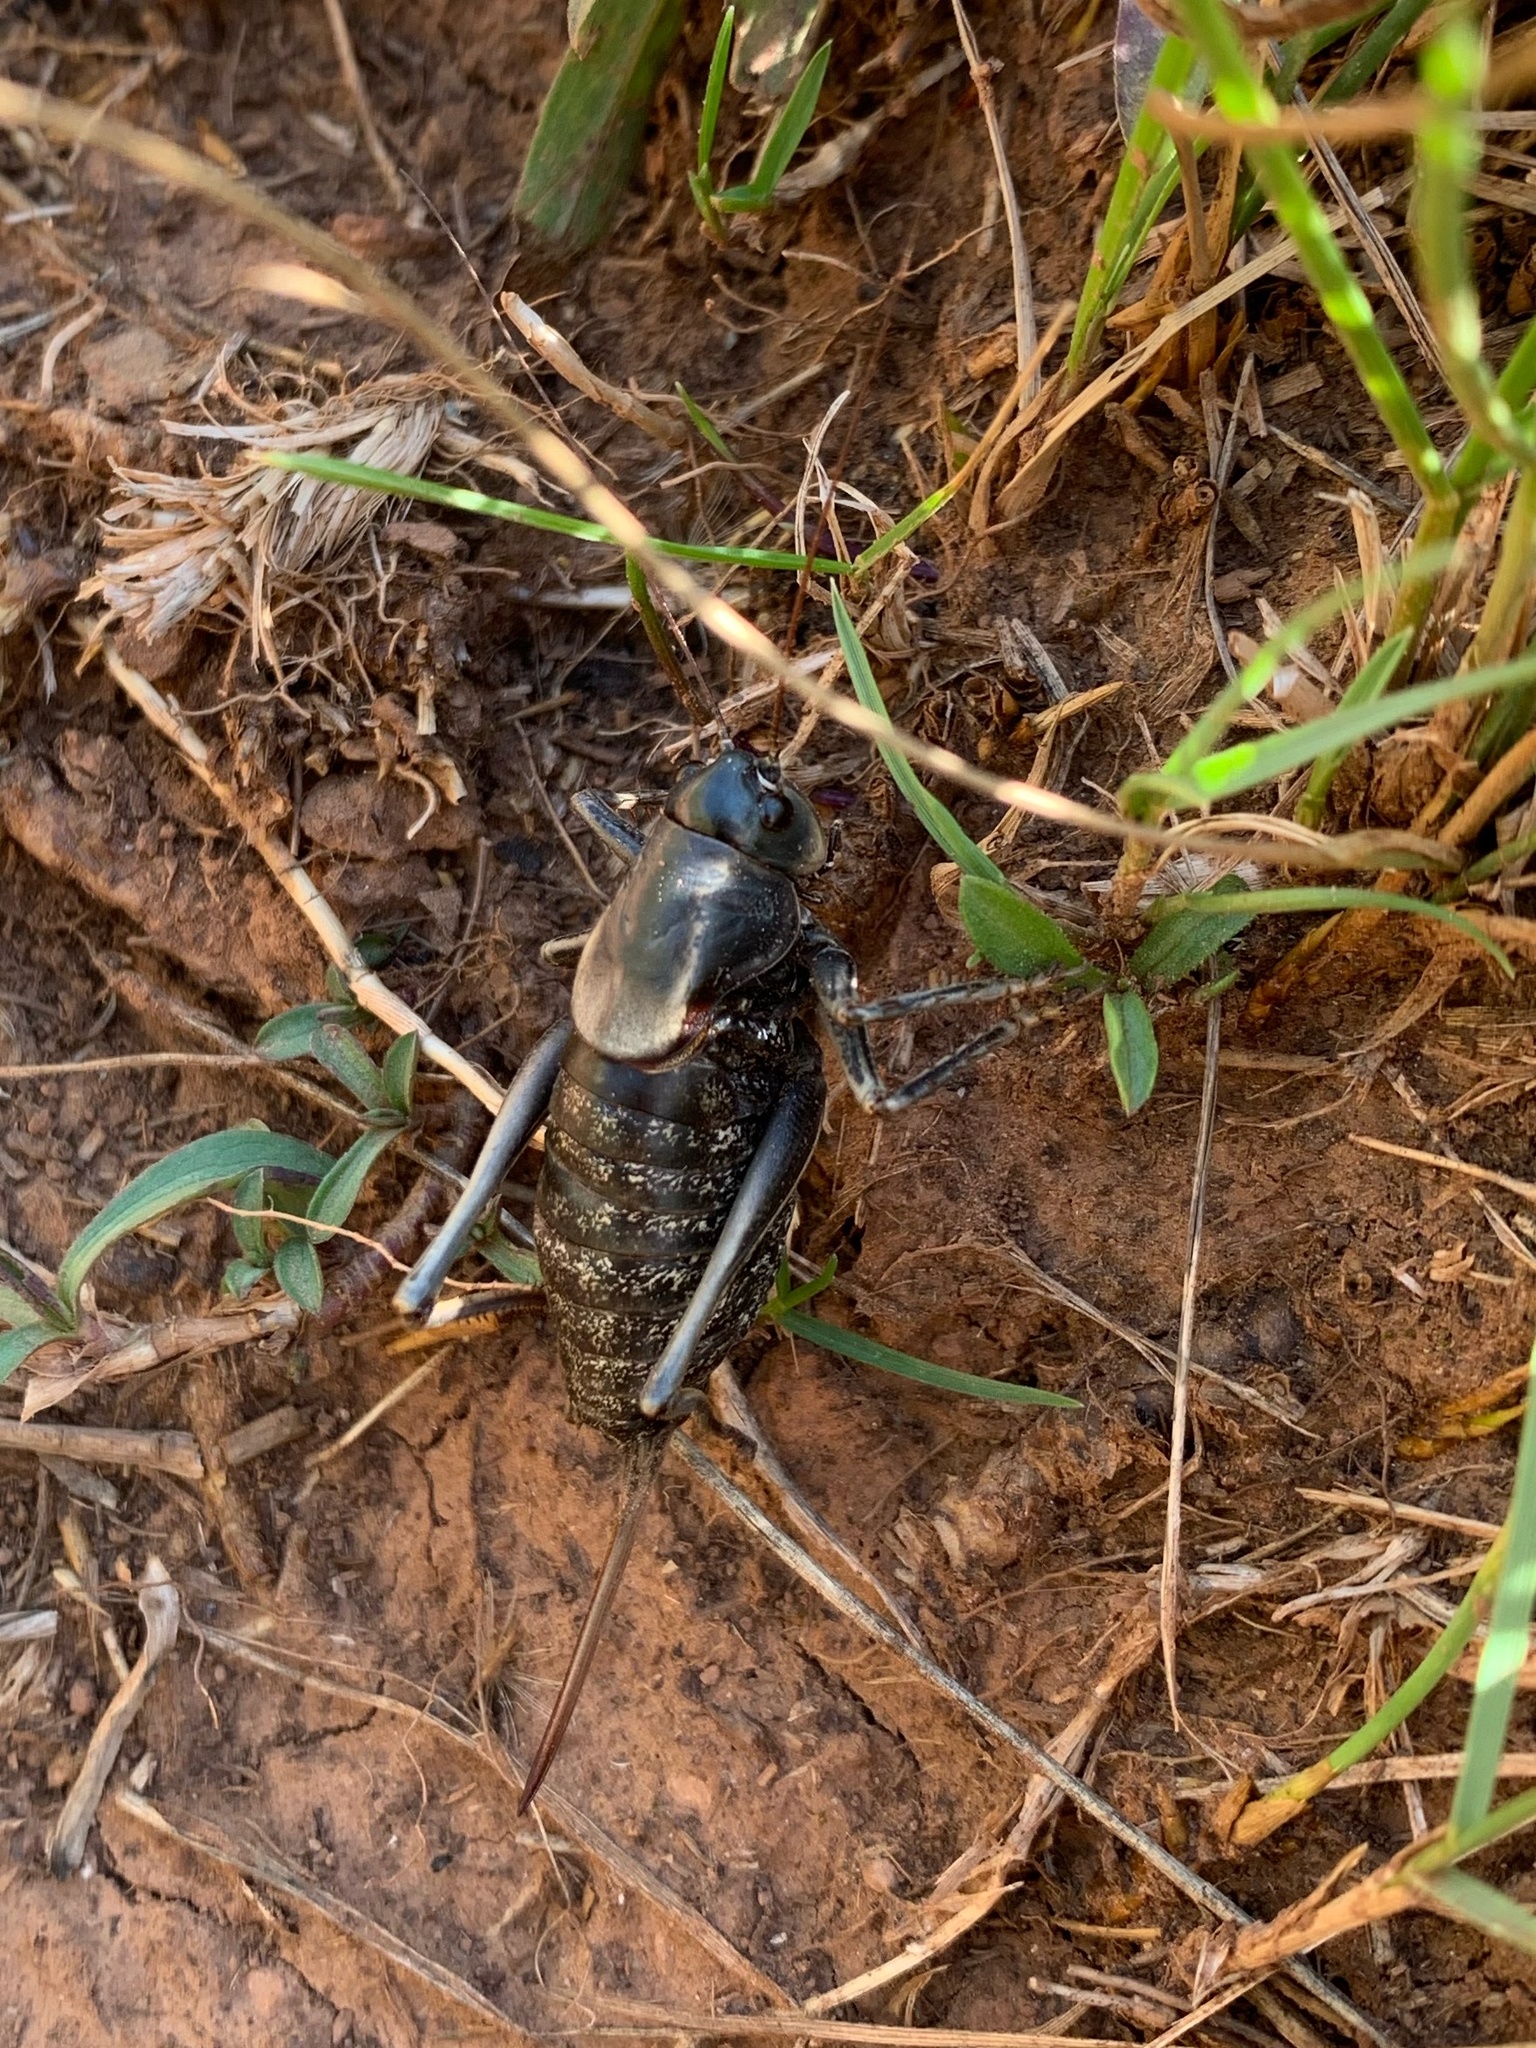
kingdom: Animalia
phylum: Arthropoda
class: Insecta
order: Orthoptera
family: Tettigoniidae
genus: Anabrus
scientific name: Anabrus simplex
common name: Mormon cricket
